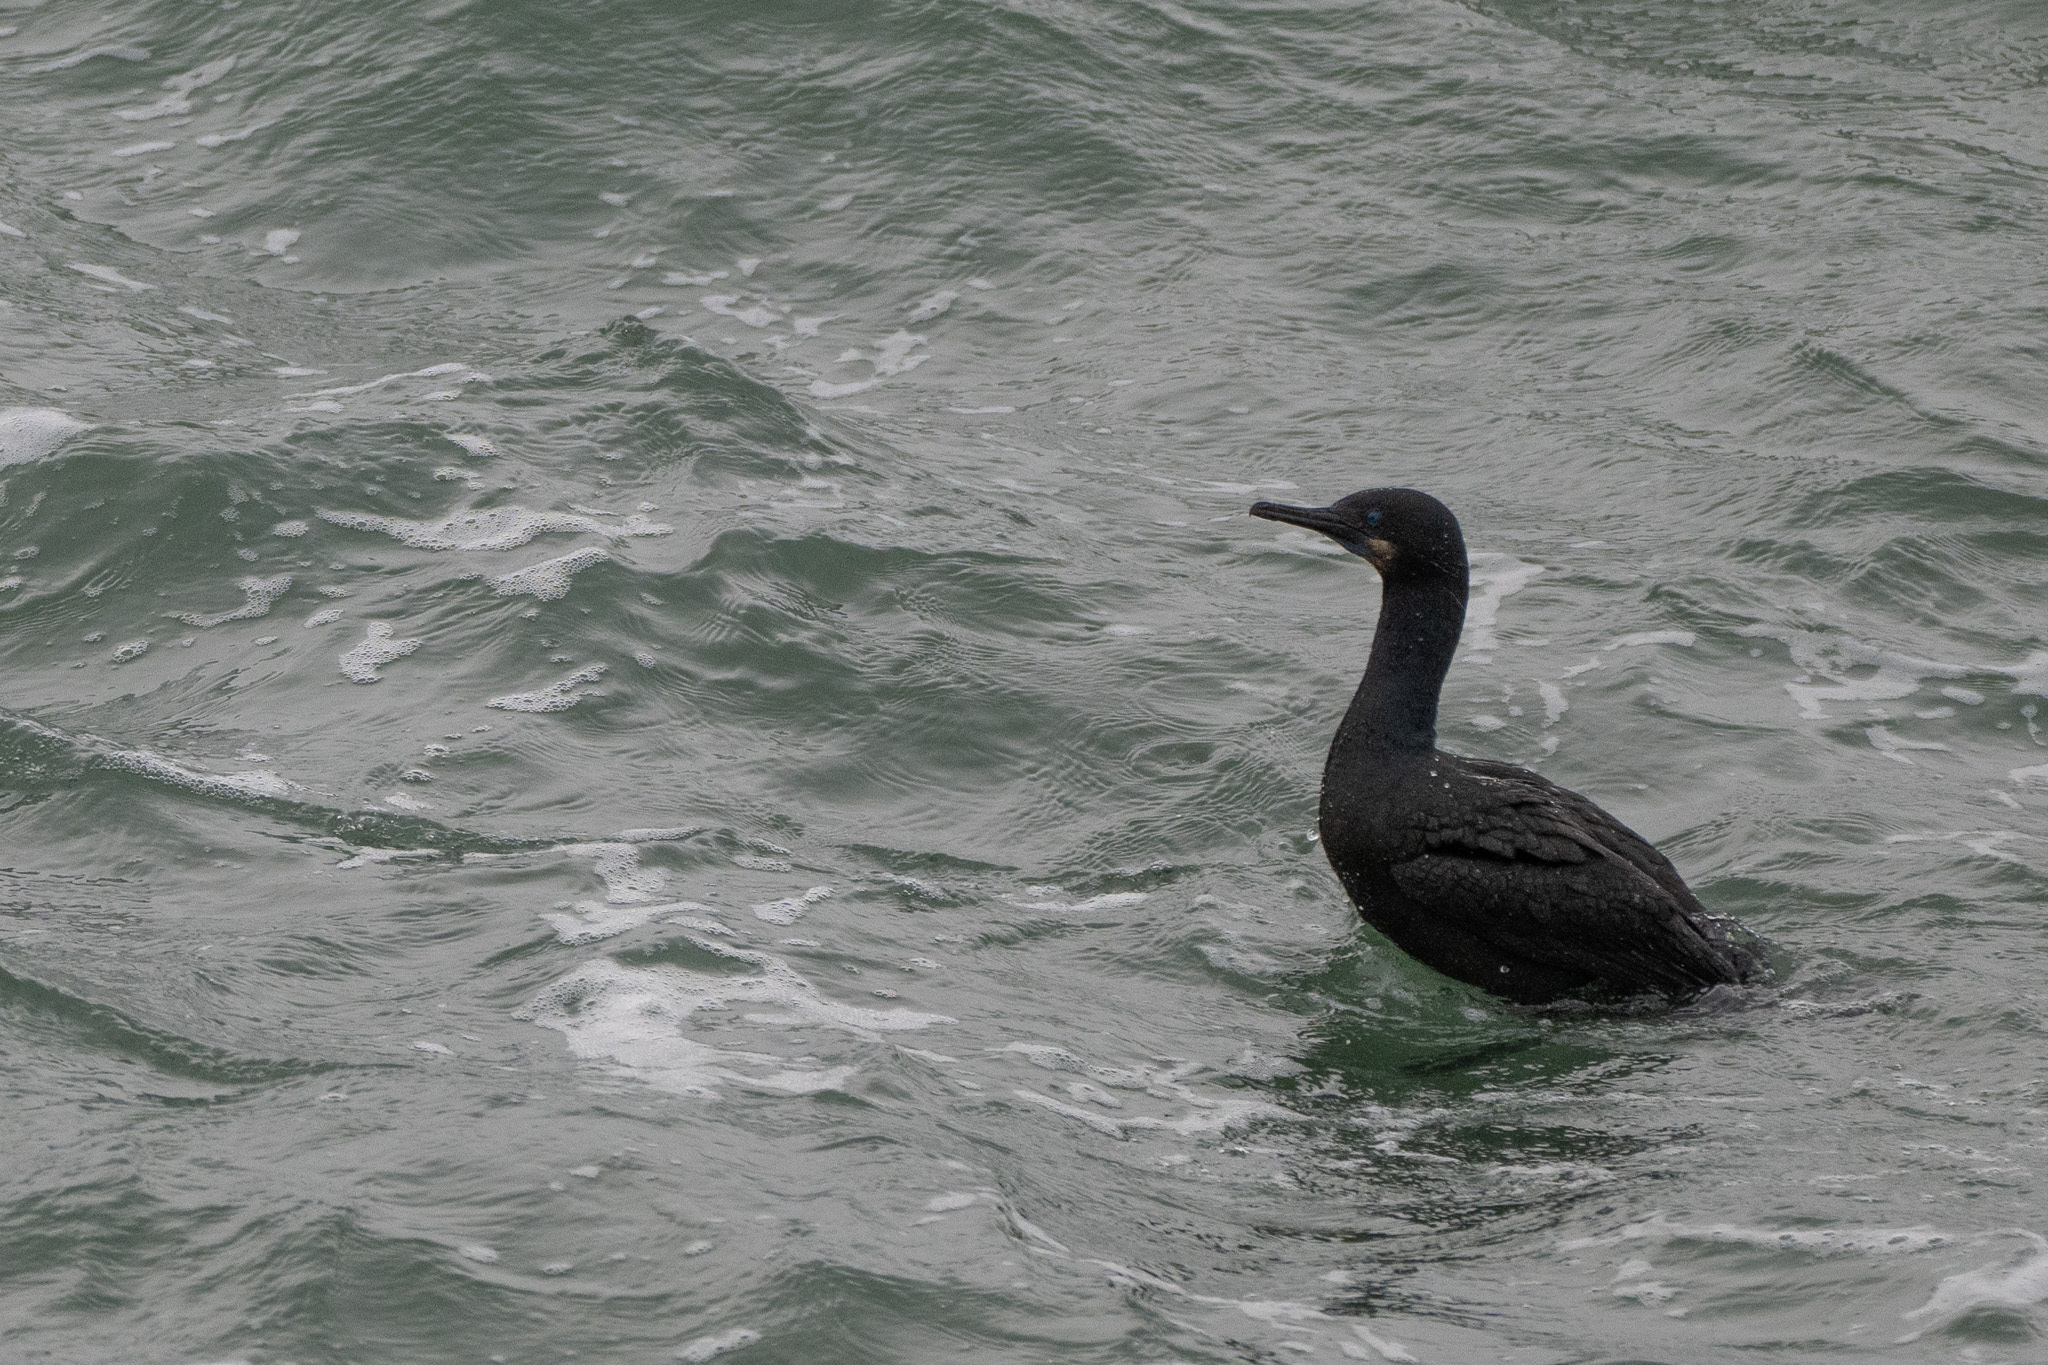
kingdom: Animalia
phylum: Chordata
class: Aves
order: Suliformes
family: Phalacrocoracidae
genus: Urile
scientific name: Urile penicillatus
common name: Brandt's cormorant
